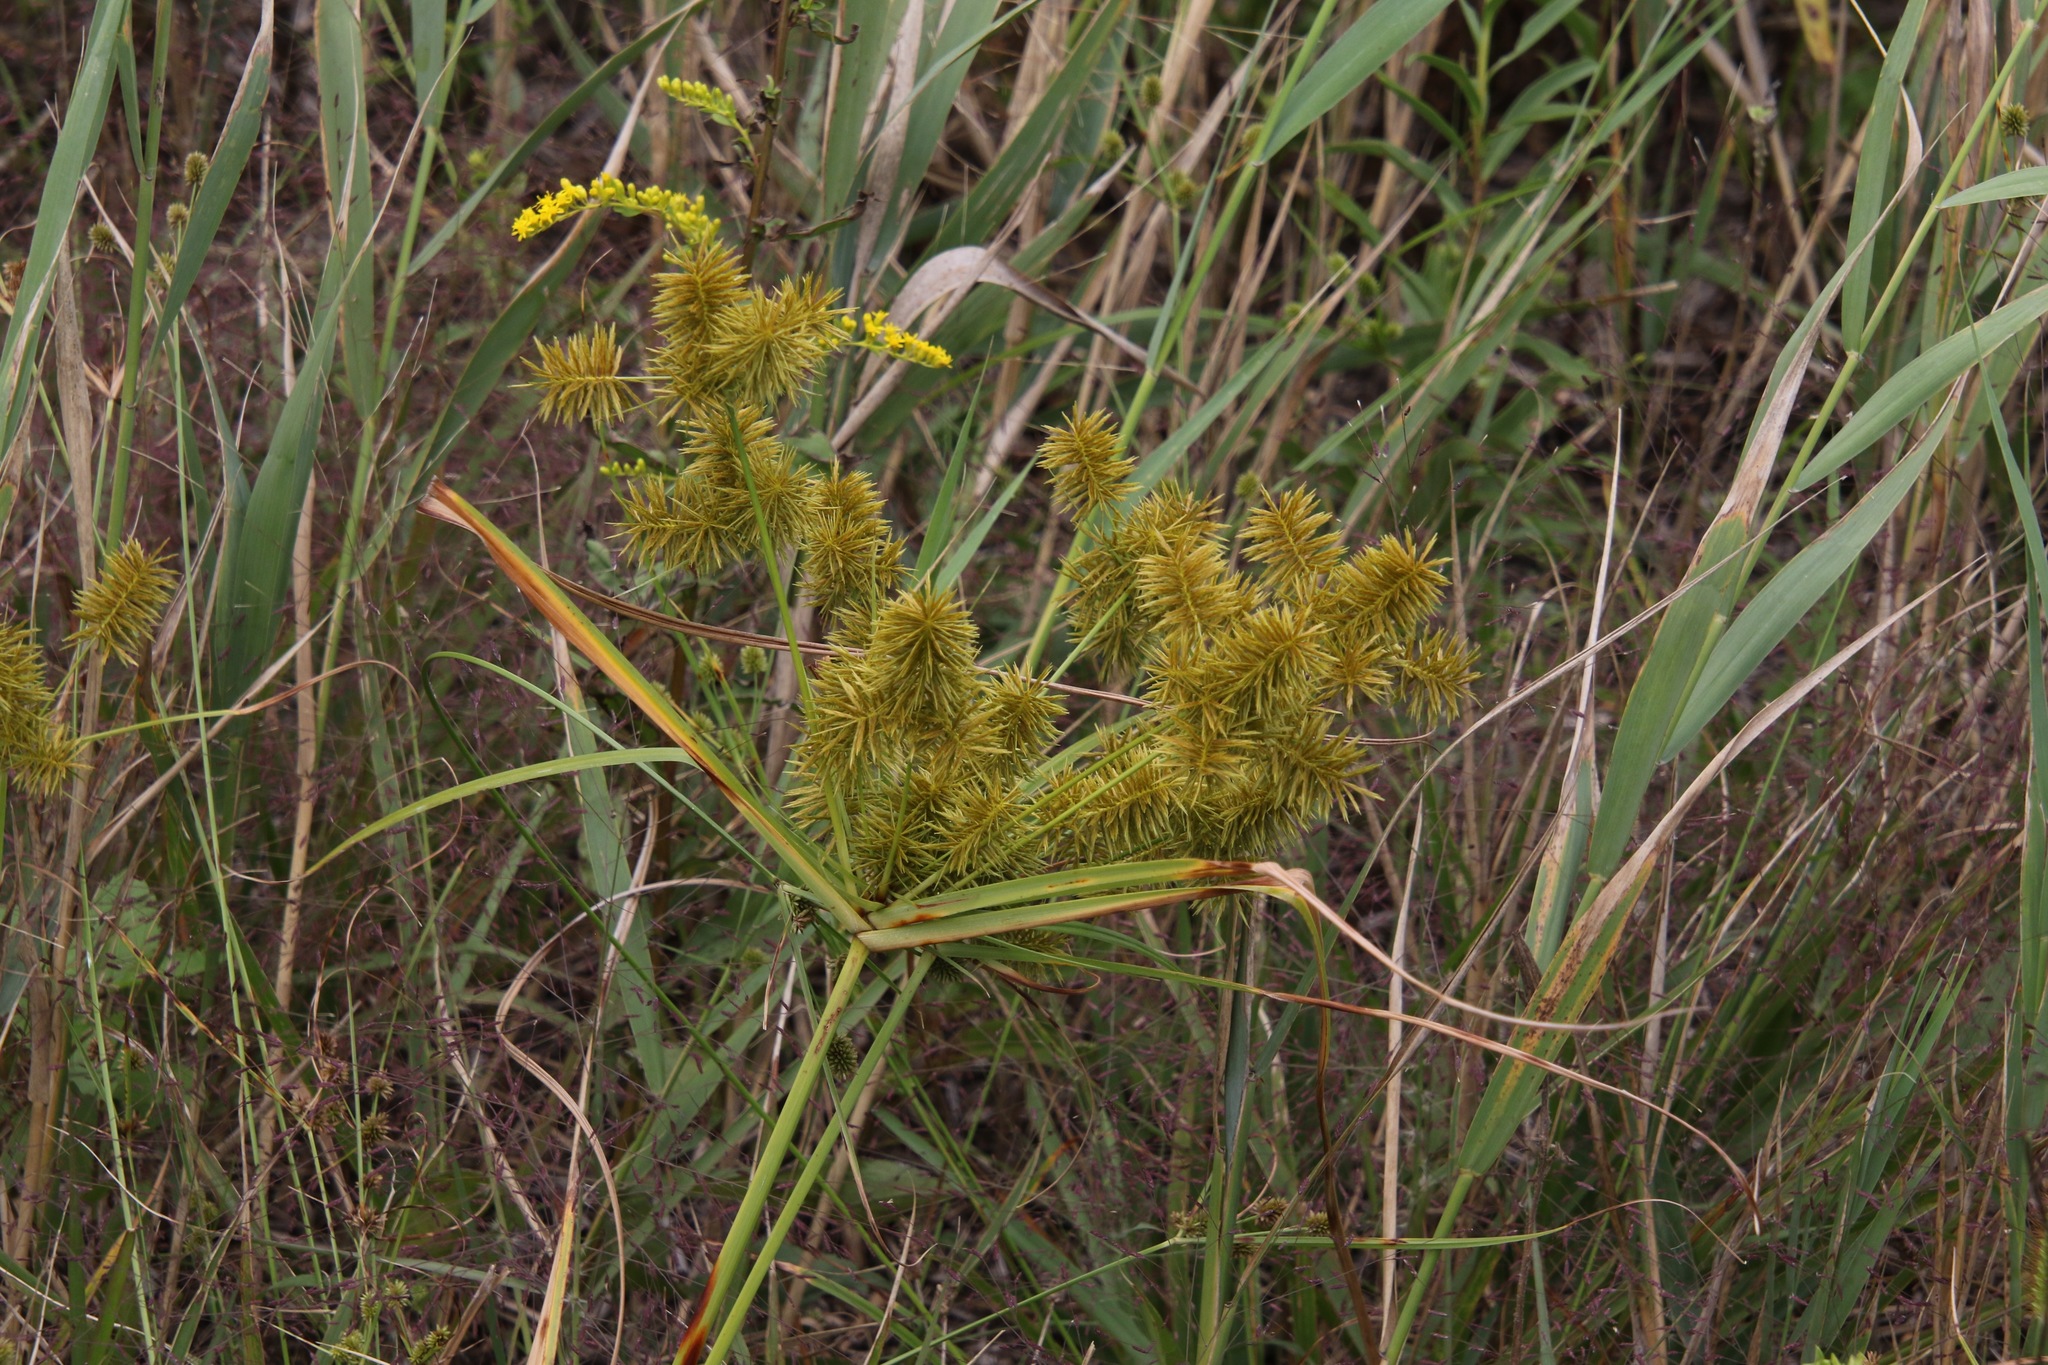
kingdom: Plantae
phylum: Tracheophyta
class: Liliopsida
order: Poales
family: Cyperaceae
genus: Cyperus
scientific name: Cyperus strigosus
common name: False nutsedge
